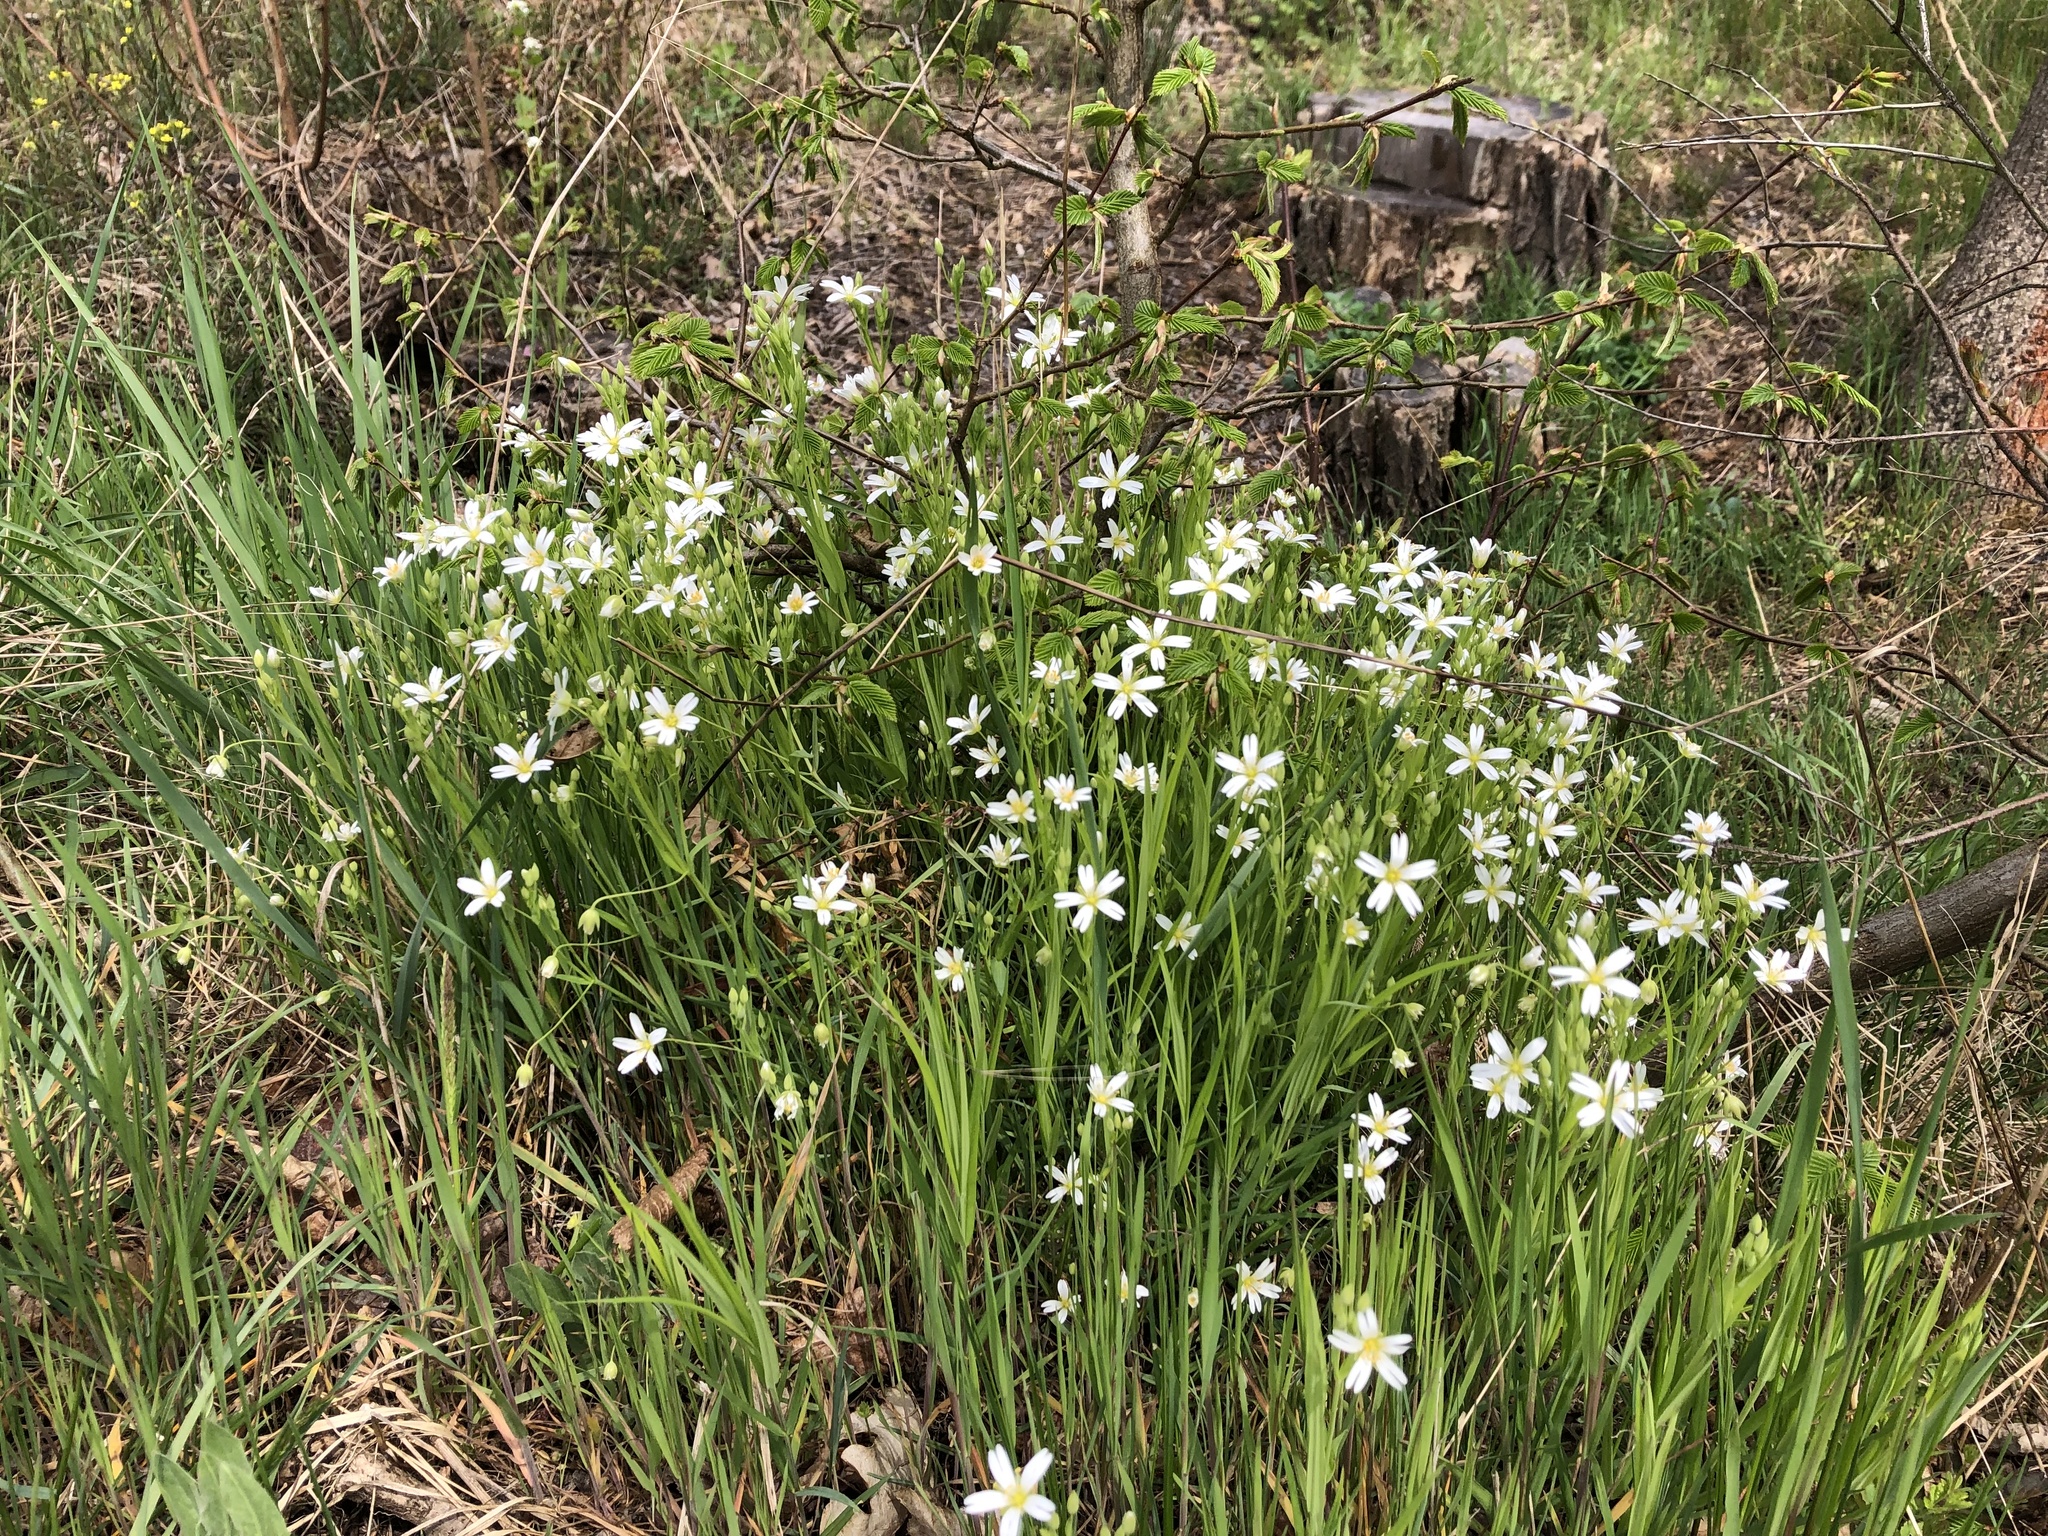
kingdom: Plantae
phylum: Tracheophyta
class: Magnoliopsida
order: Caryophyllales
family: Caryophyllaceae
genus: Rabelera
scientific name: Rabelera holostea
